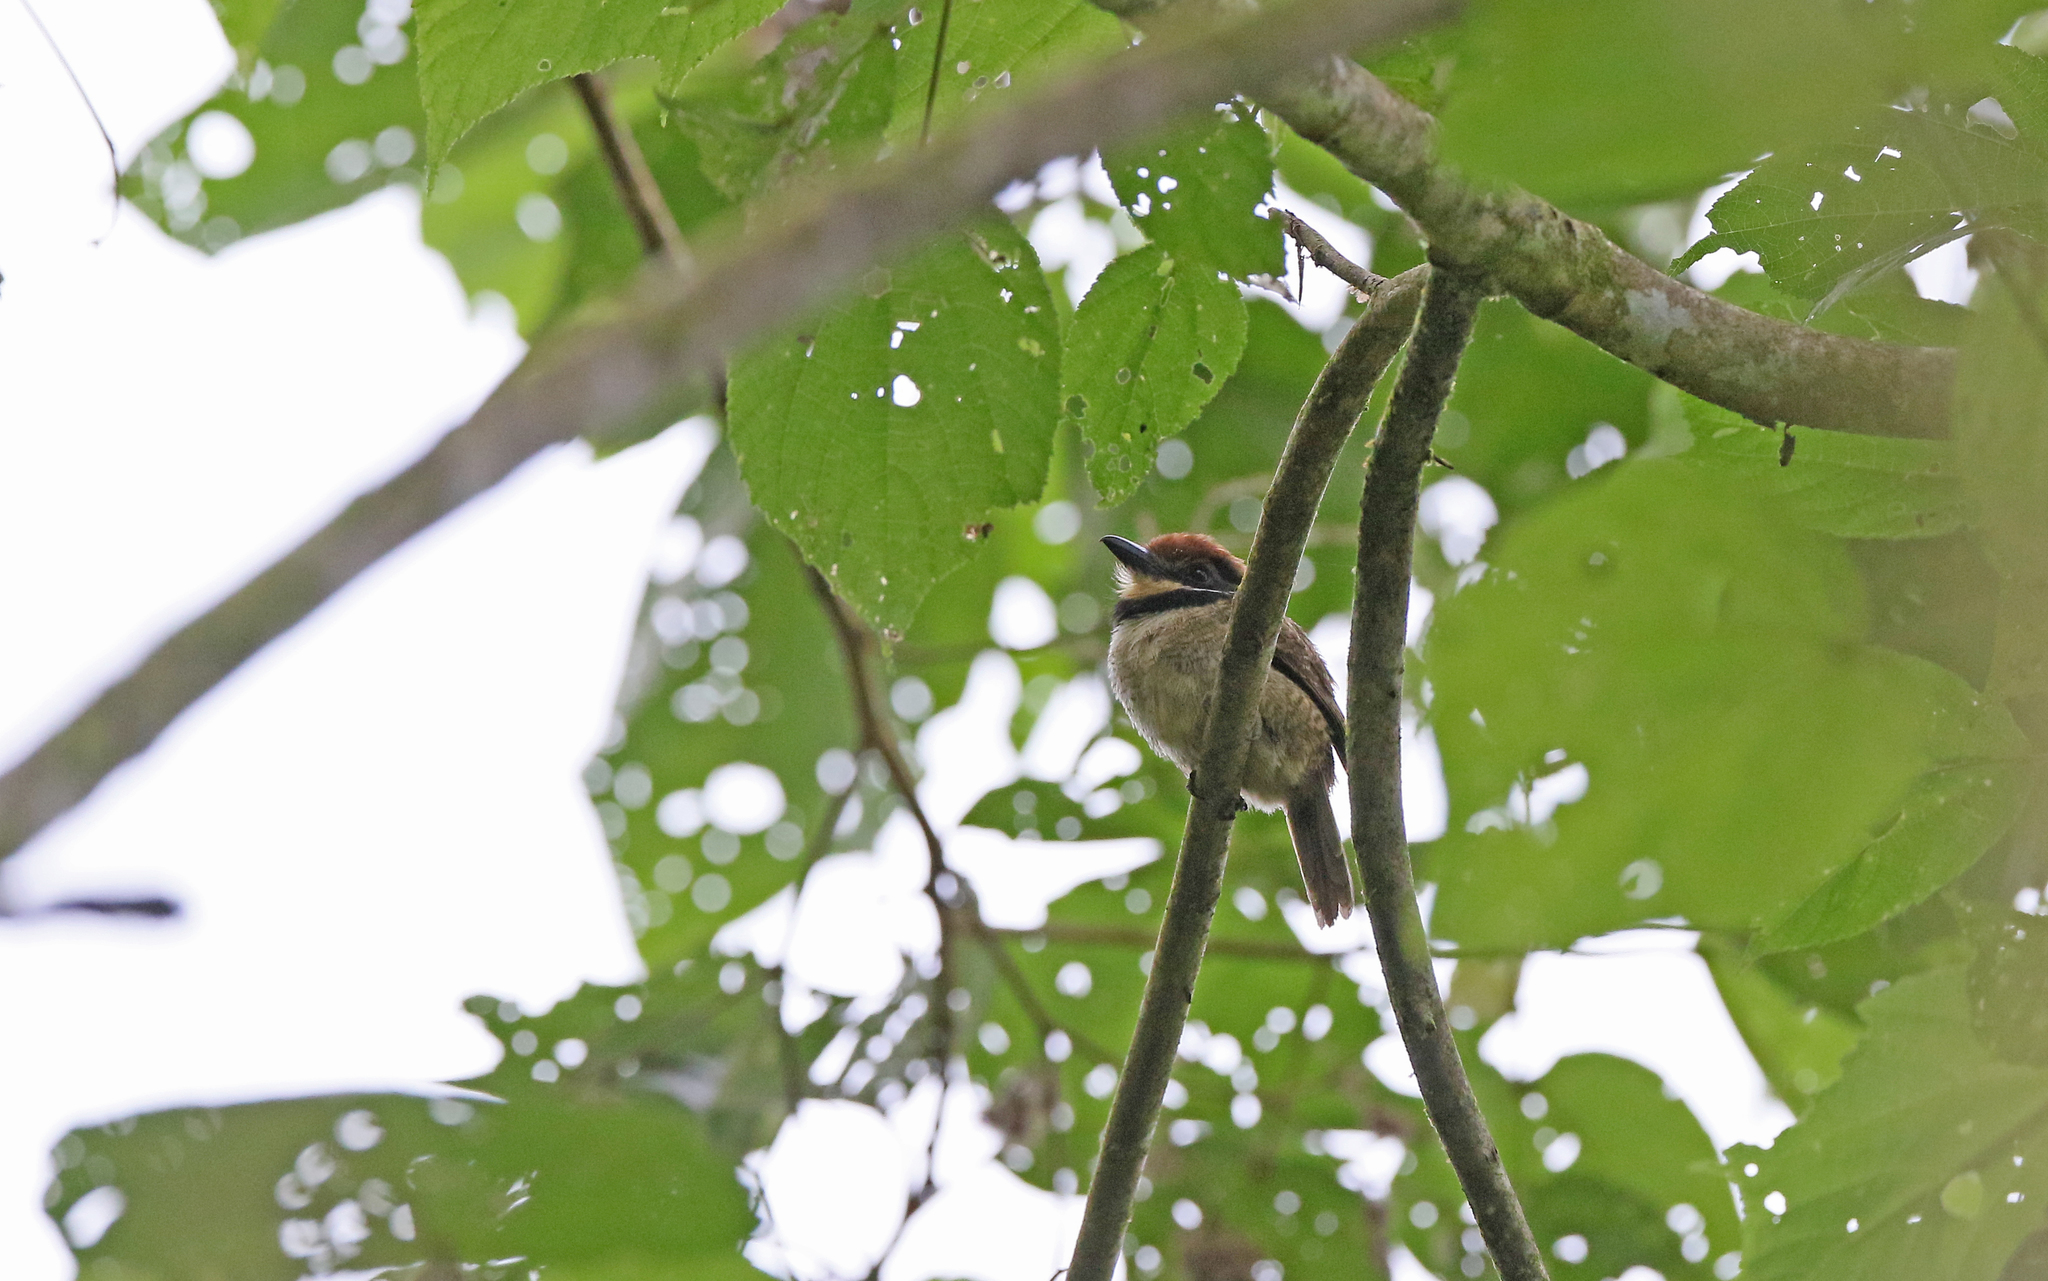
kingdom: Animalia
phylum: Chordata
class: Aves
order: Piciformes
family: Bucconidae
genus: Bucco
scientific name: Bucco macrodactylus
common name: Chestnut-capped puffbird
